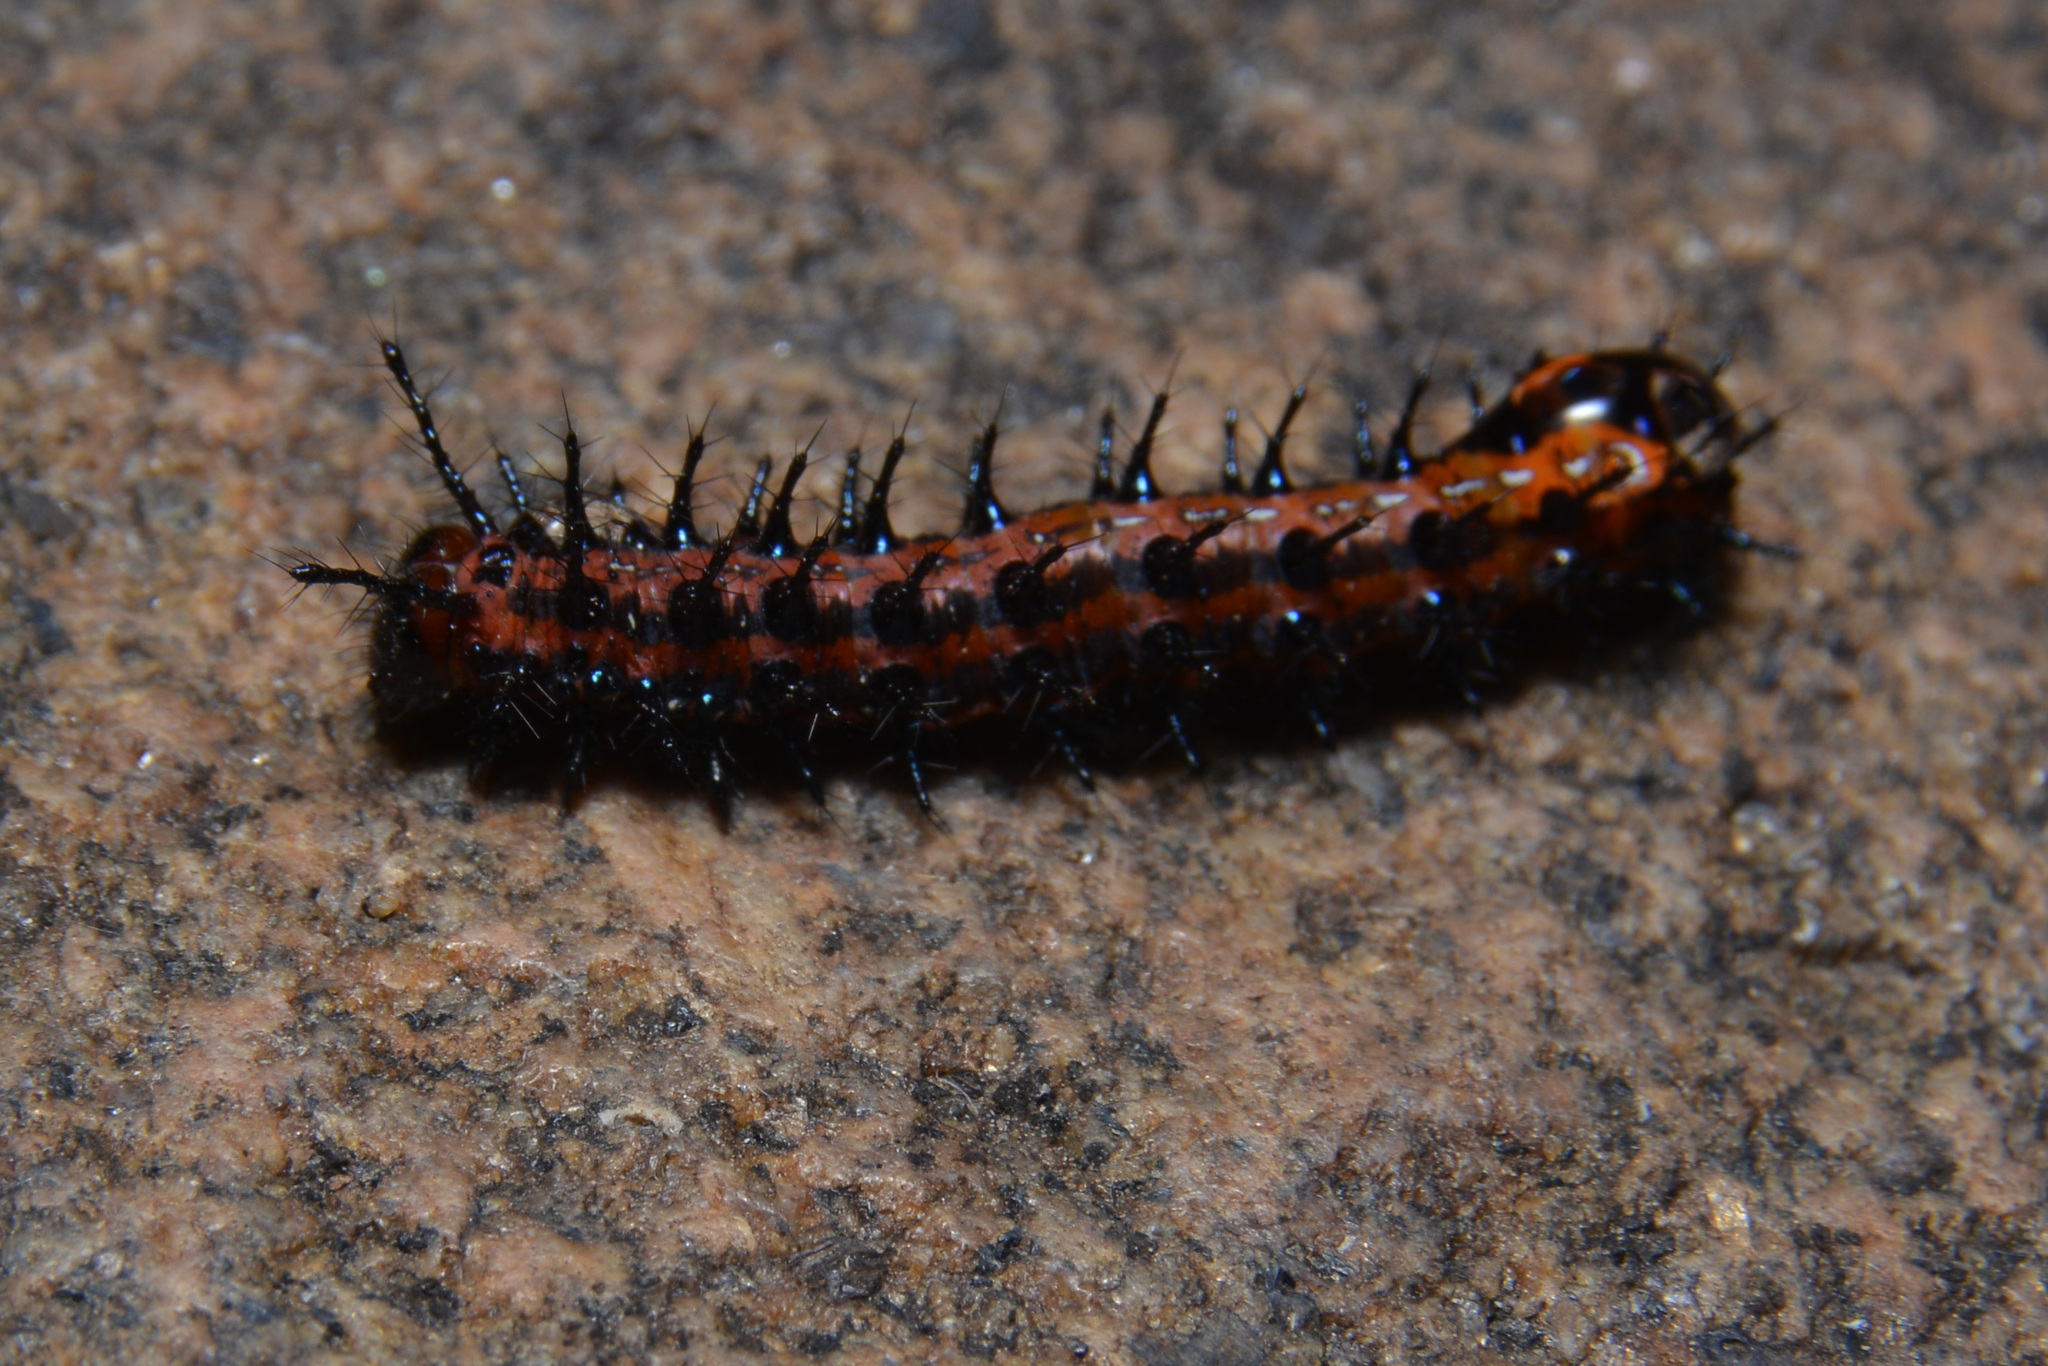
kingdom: Animalia
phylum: Arthropoda
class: Insecta
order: Lepidoptera
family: Nymphalidae
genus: Euptoieta
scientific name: Euptoieta hortensia
